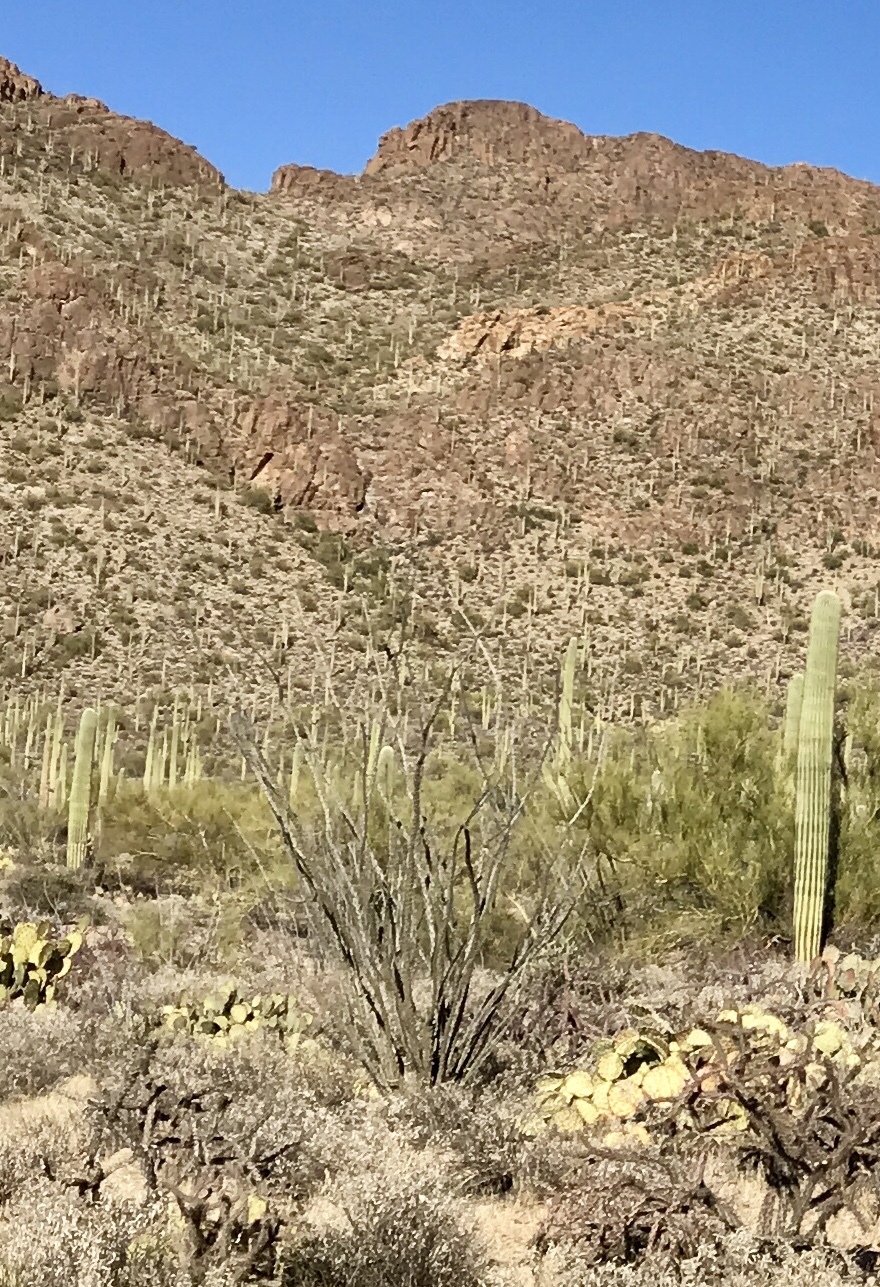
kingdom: Plantae
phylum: Tracheophyta
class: Magnoliopsida
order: Ericales
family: Fouquieriaceae
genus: Fouquieria
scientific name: Fouquieria splendens
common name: Vine-cactus
